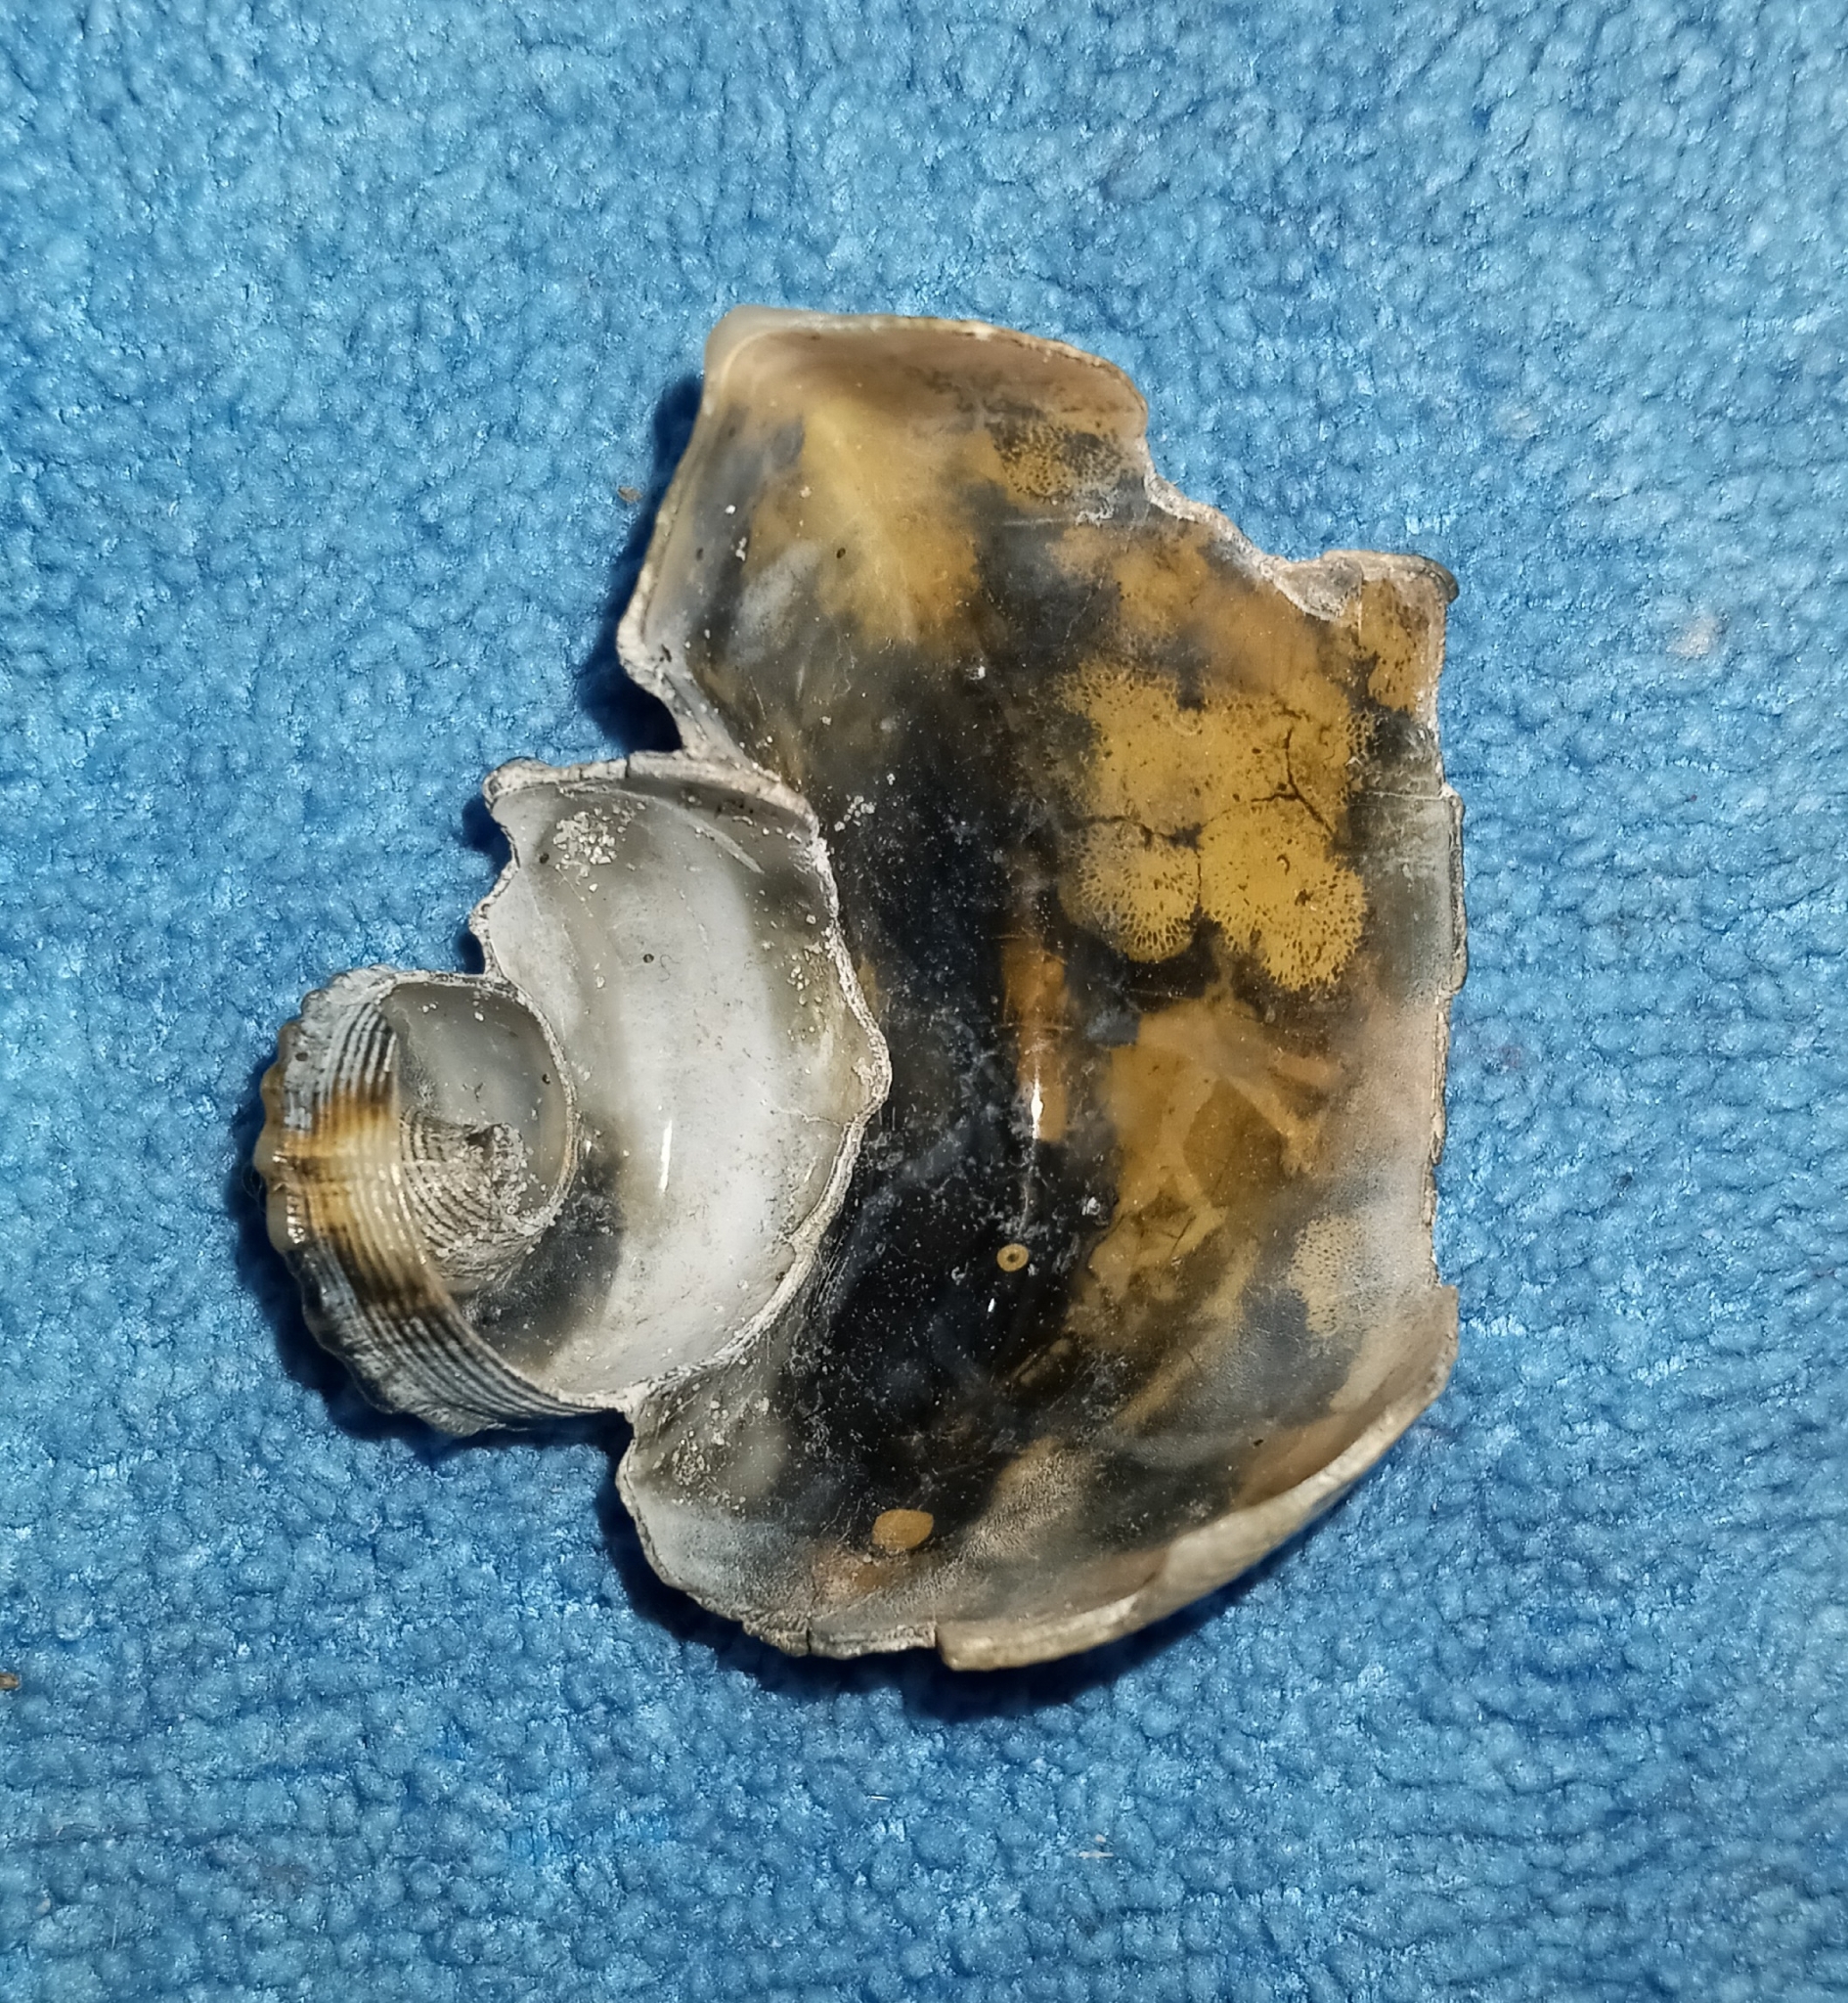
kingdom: Animalia
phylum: Mollusca
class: Gastropoda
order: Neogastropoda
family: Busyconidae
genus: Busycotypus
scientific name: Busycotypus canaliculatus
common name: Channeled whelk
